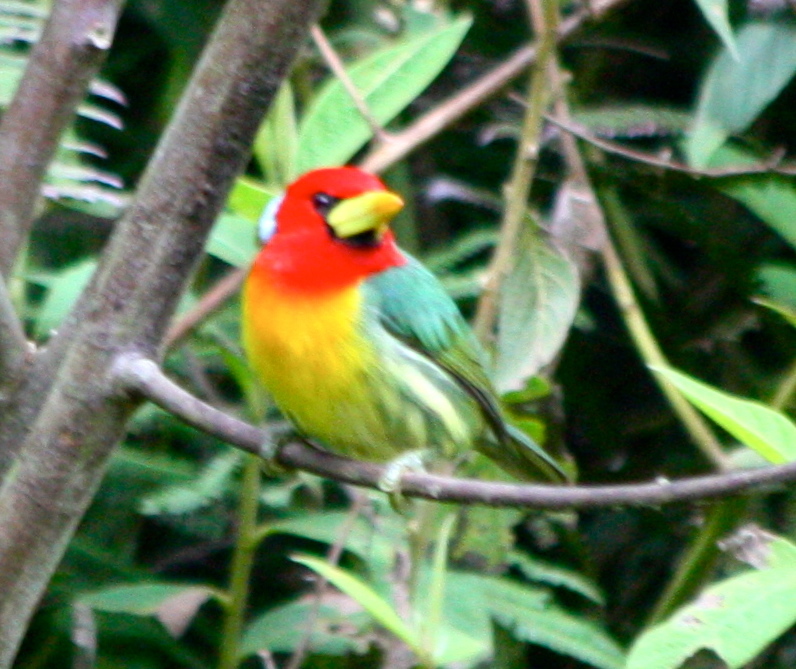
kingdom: Animalia
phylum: Chordata
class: Aves
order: Piciformes
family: Capitonidae
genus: Eubucco
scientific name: Eubucco bourcierii
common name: Red-headed barbet
